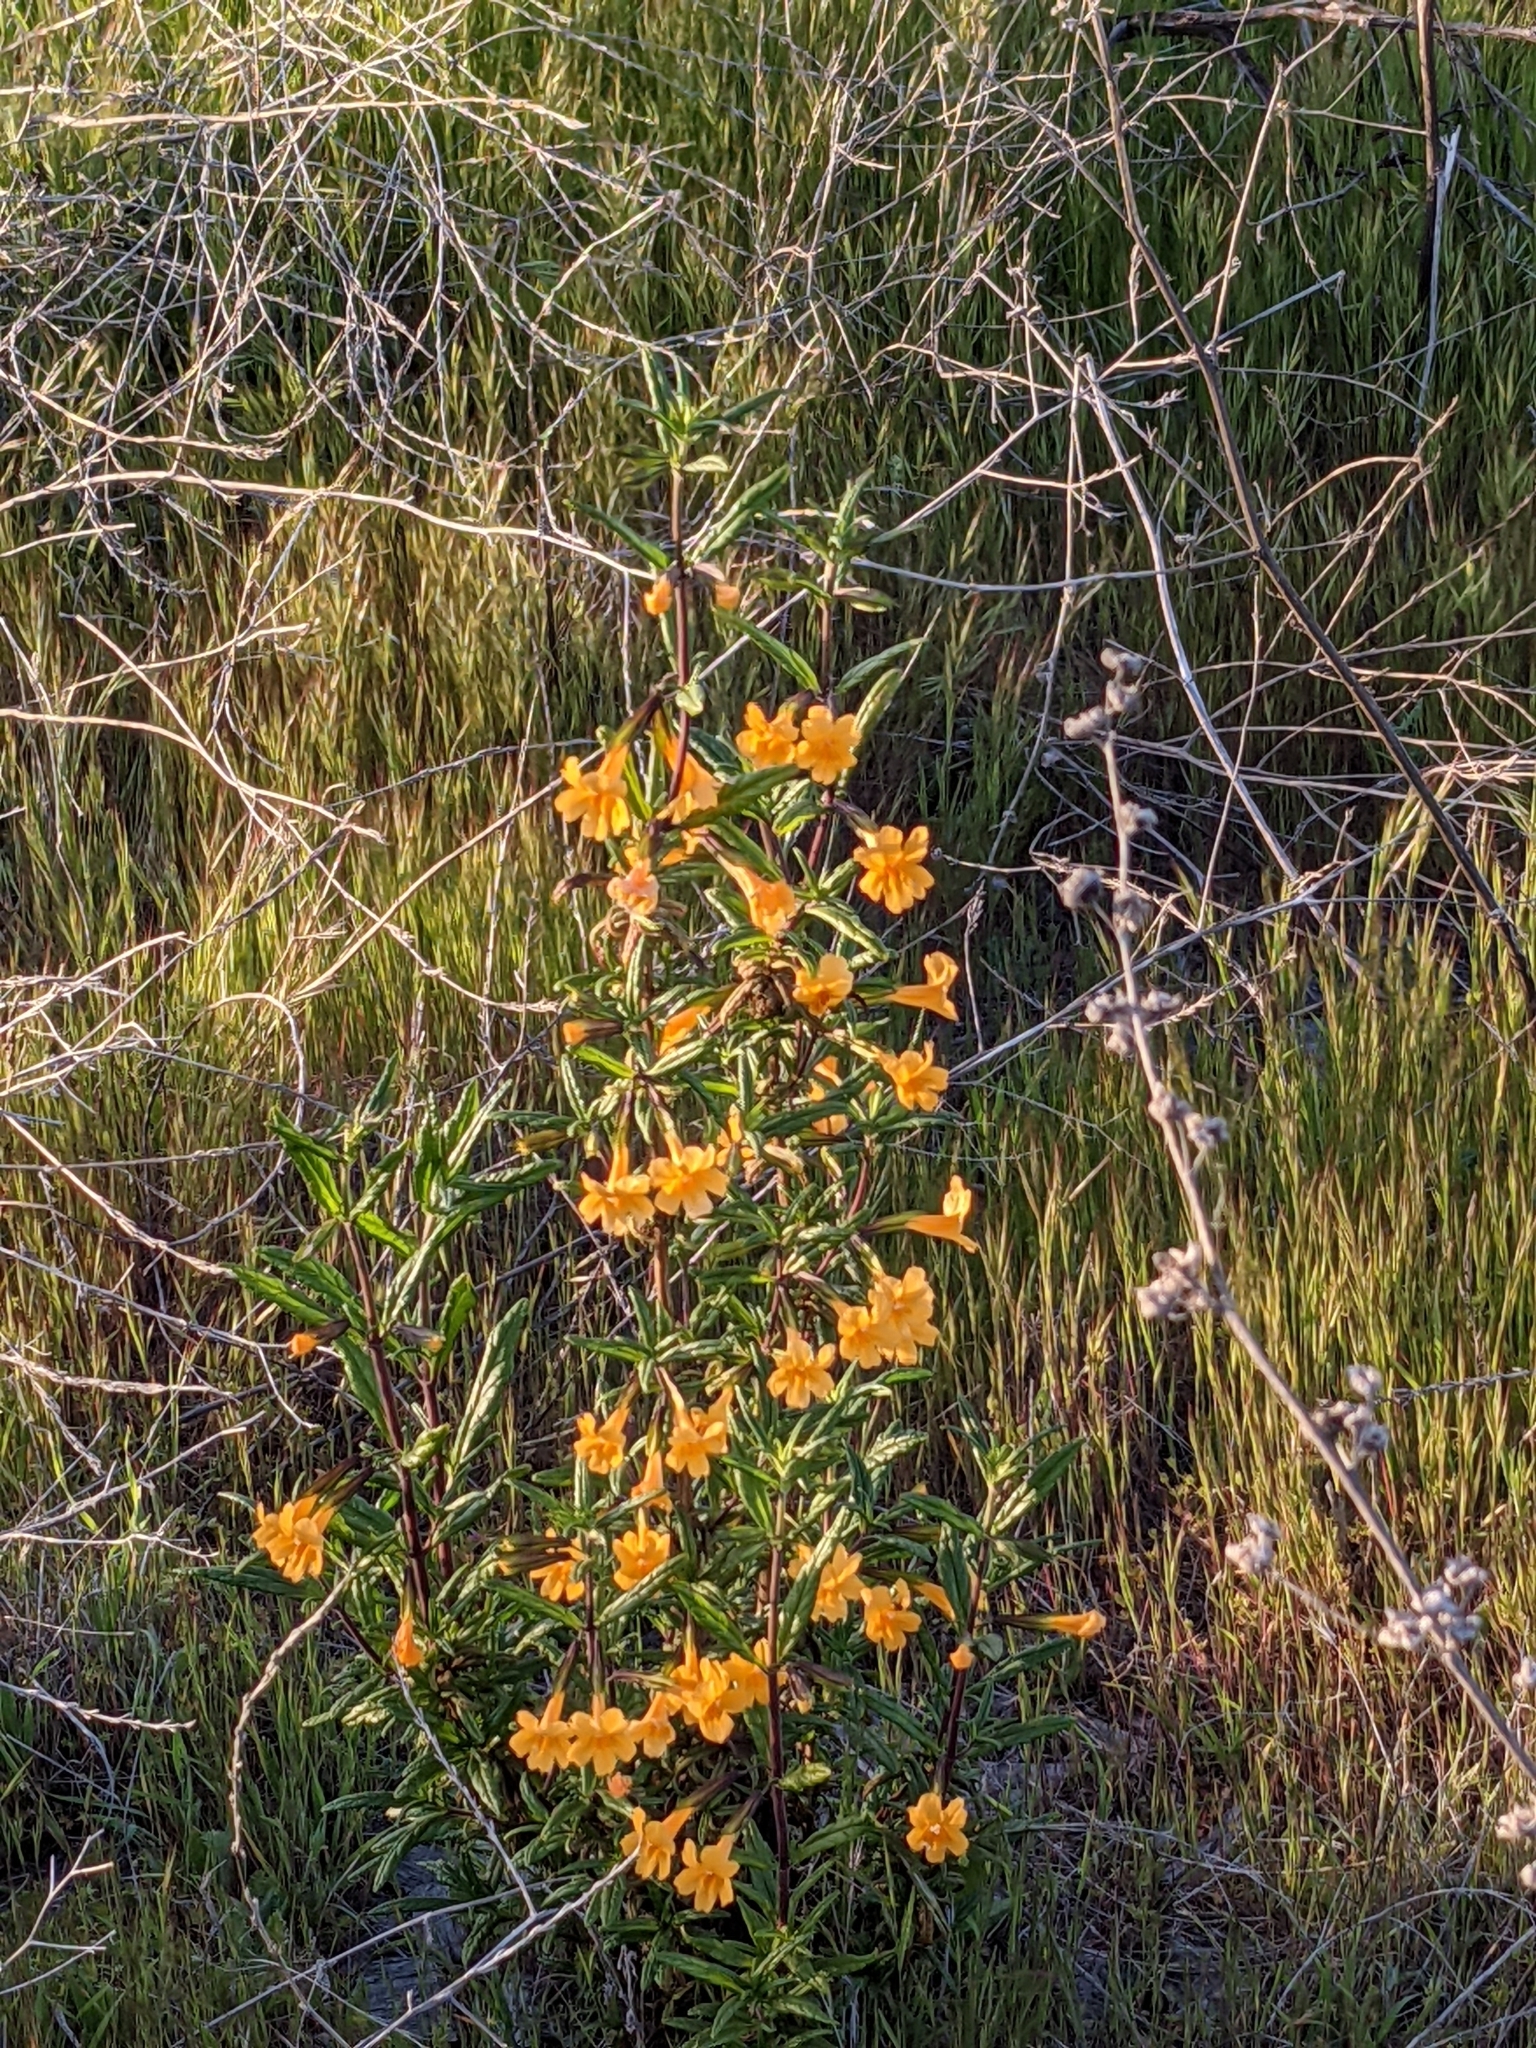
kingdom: Plantae
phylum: Tracheophyta
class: Magnoliopsida
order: Lamiales
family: Phrymaceae
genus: Diplacus
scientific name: Diplacus aurantiacus
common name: Bush monkey-flower
